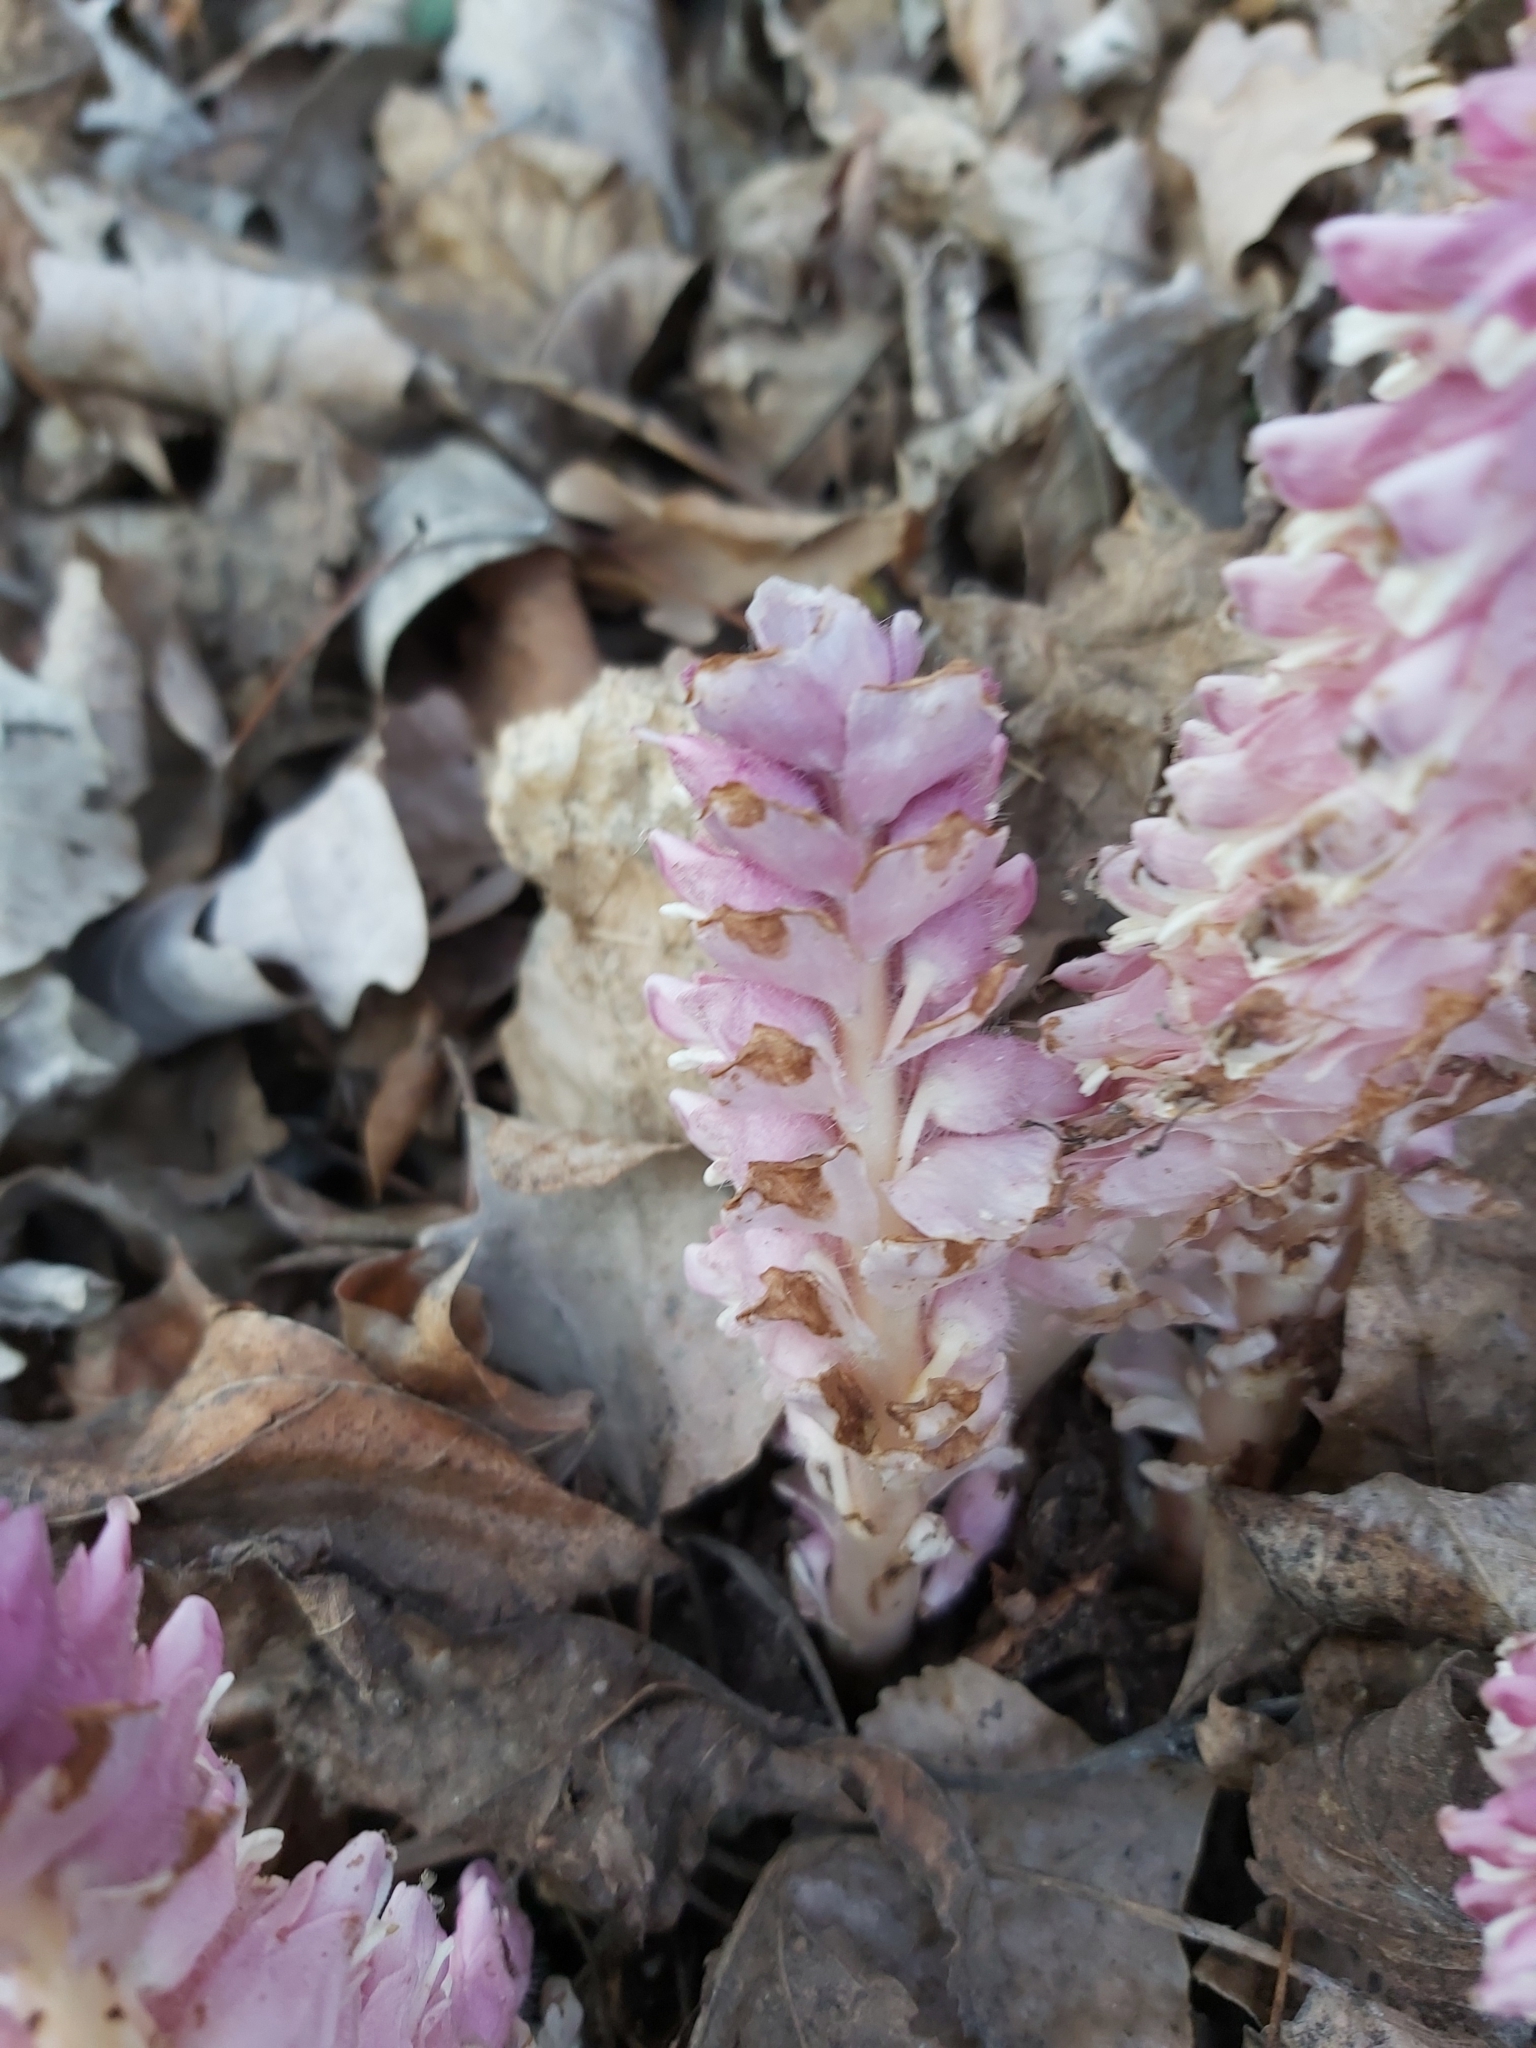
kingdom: Plantae
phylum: Tracheophyta
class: Magnoliopsida
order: Lamiales
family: Orobanchaceae
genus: Lathraea
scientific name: Lathraea squamaria
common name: Toothwort
